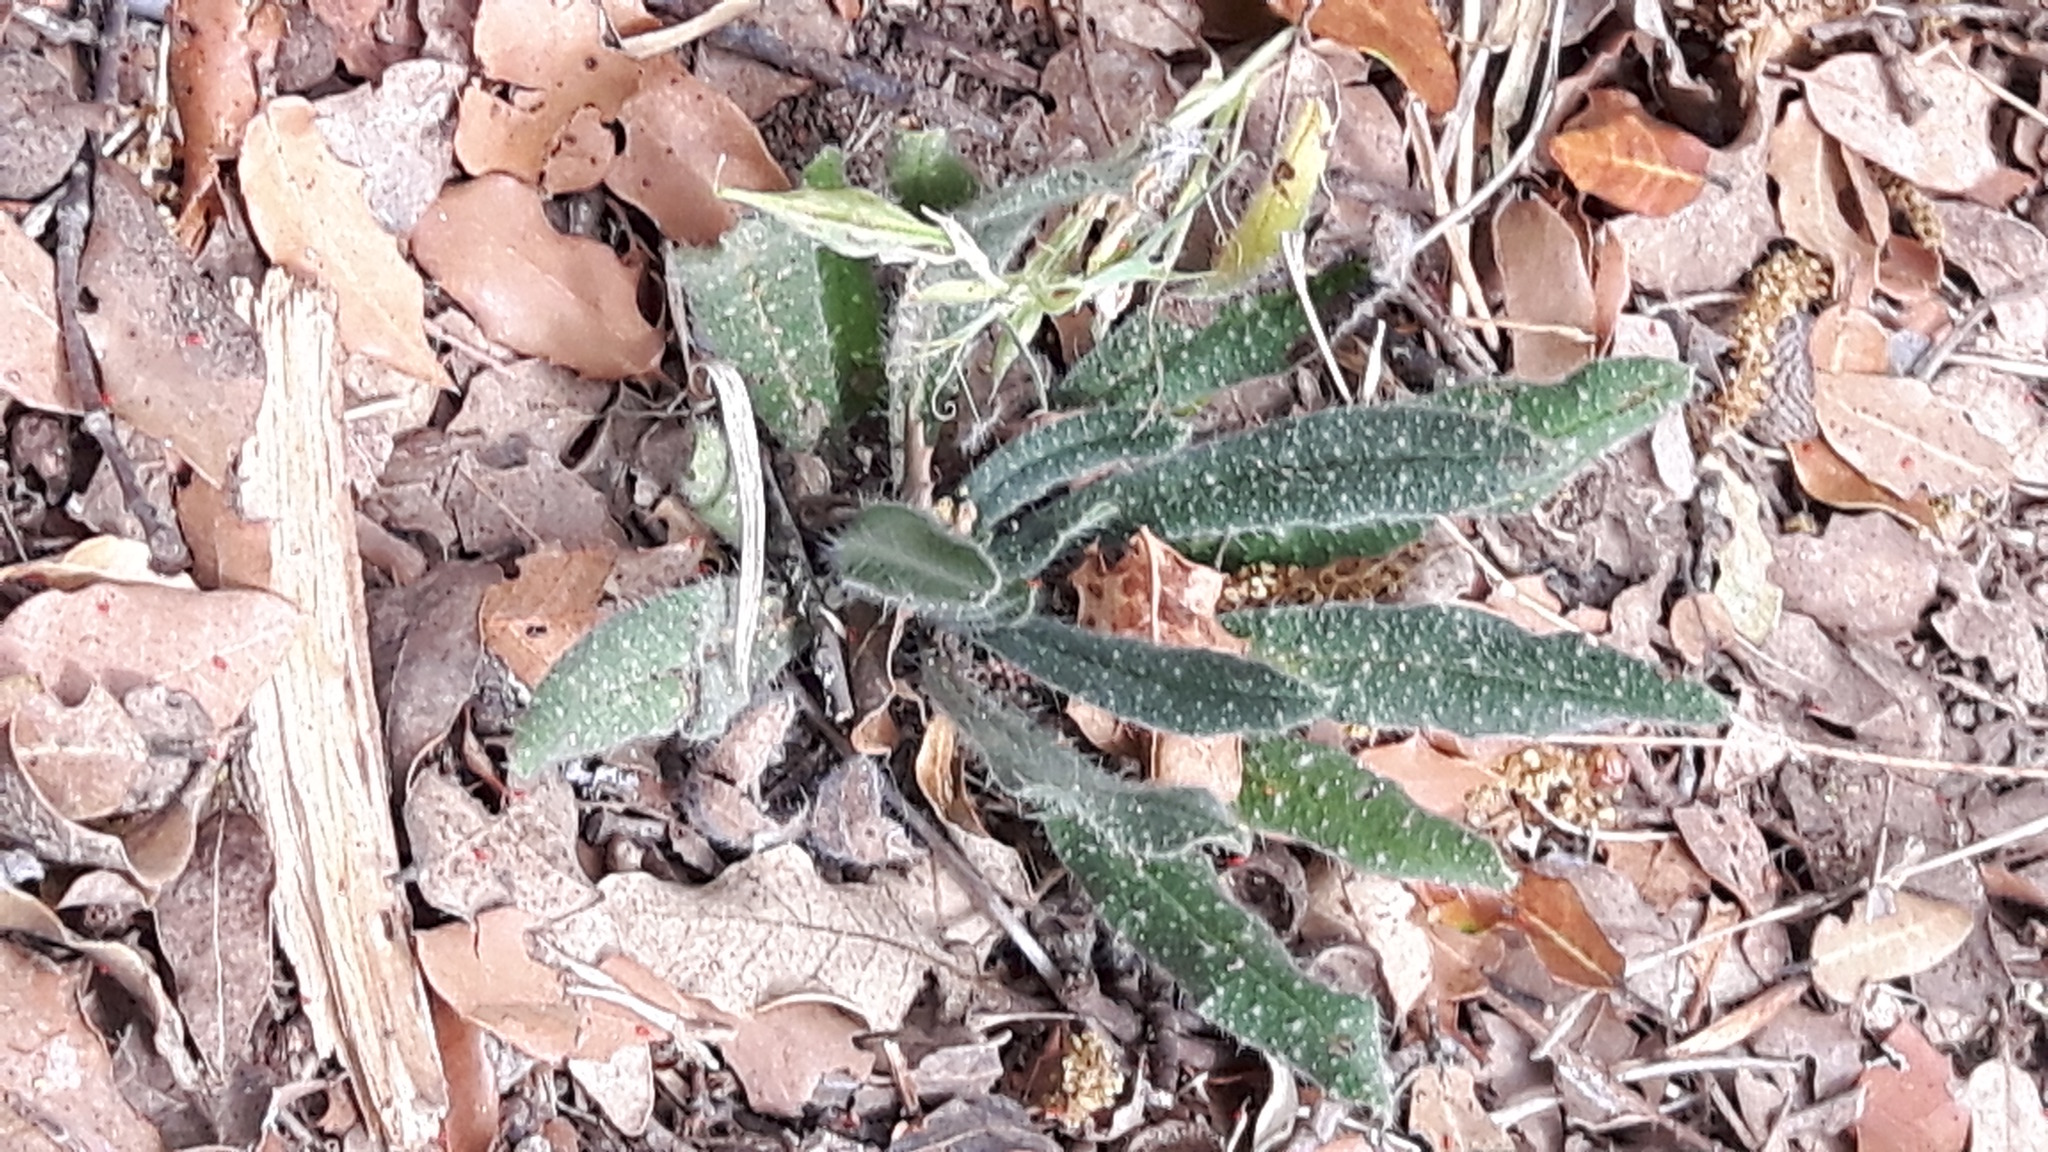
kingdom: Plantae
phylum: Tracheophyta
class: Magnoliopsida
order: Boraginales
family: Boraginaceae
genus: Echium
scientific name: Echium vulgare
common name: Common viper's bugloss
